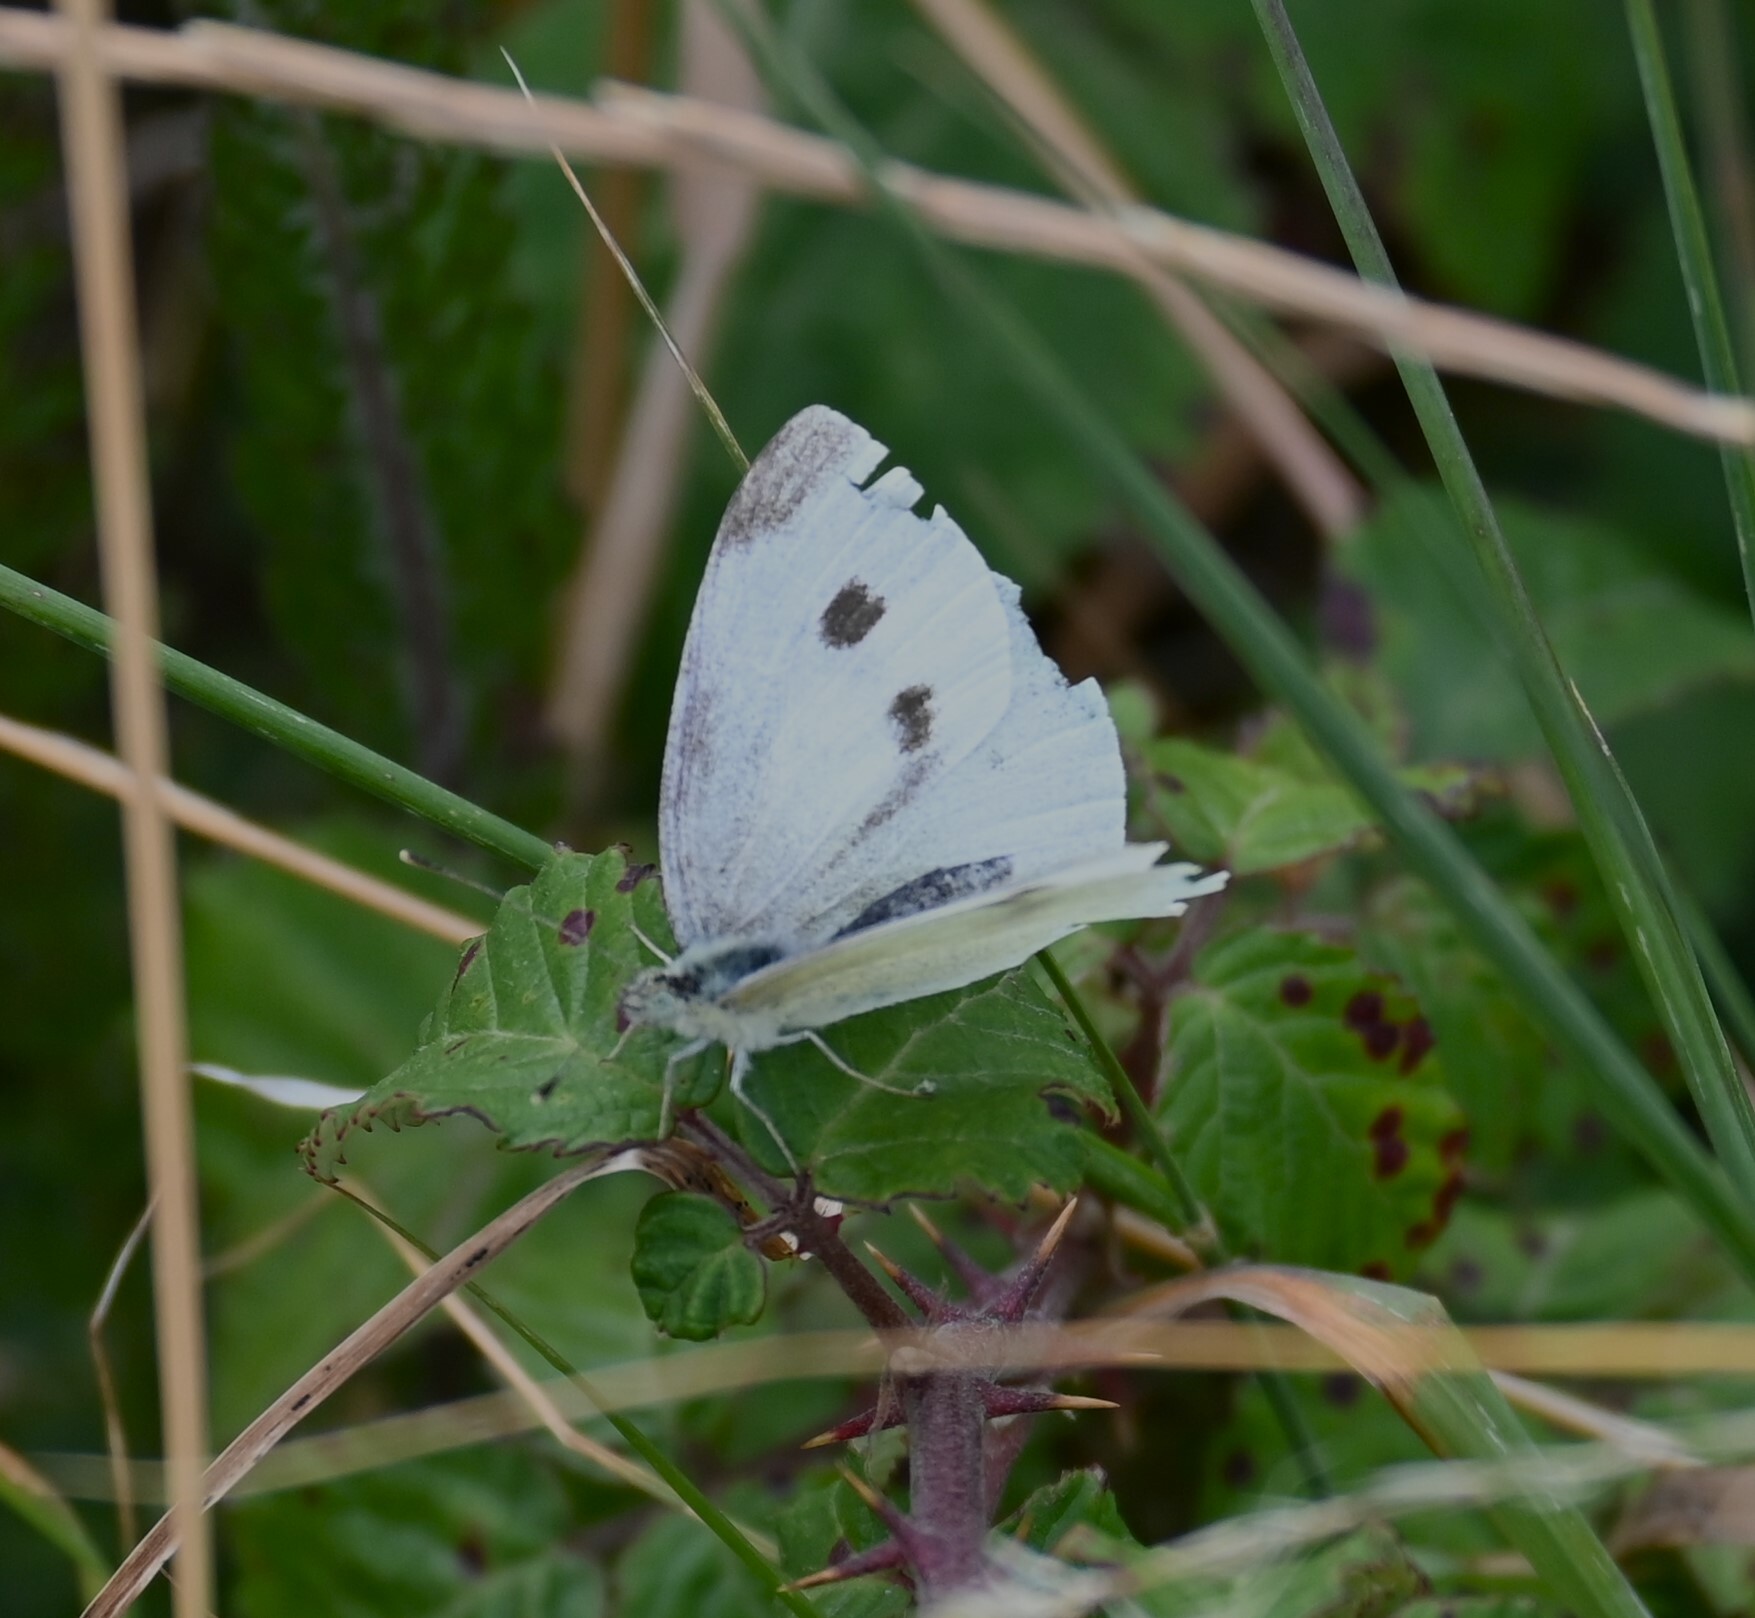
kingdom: Animalia
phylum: Arthropoda
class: Insecta
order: Lepidoptera
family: Pieridae
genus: Pieris
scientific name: Pieris rapae
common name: Small white
